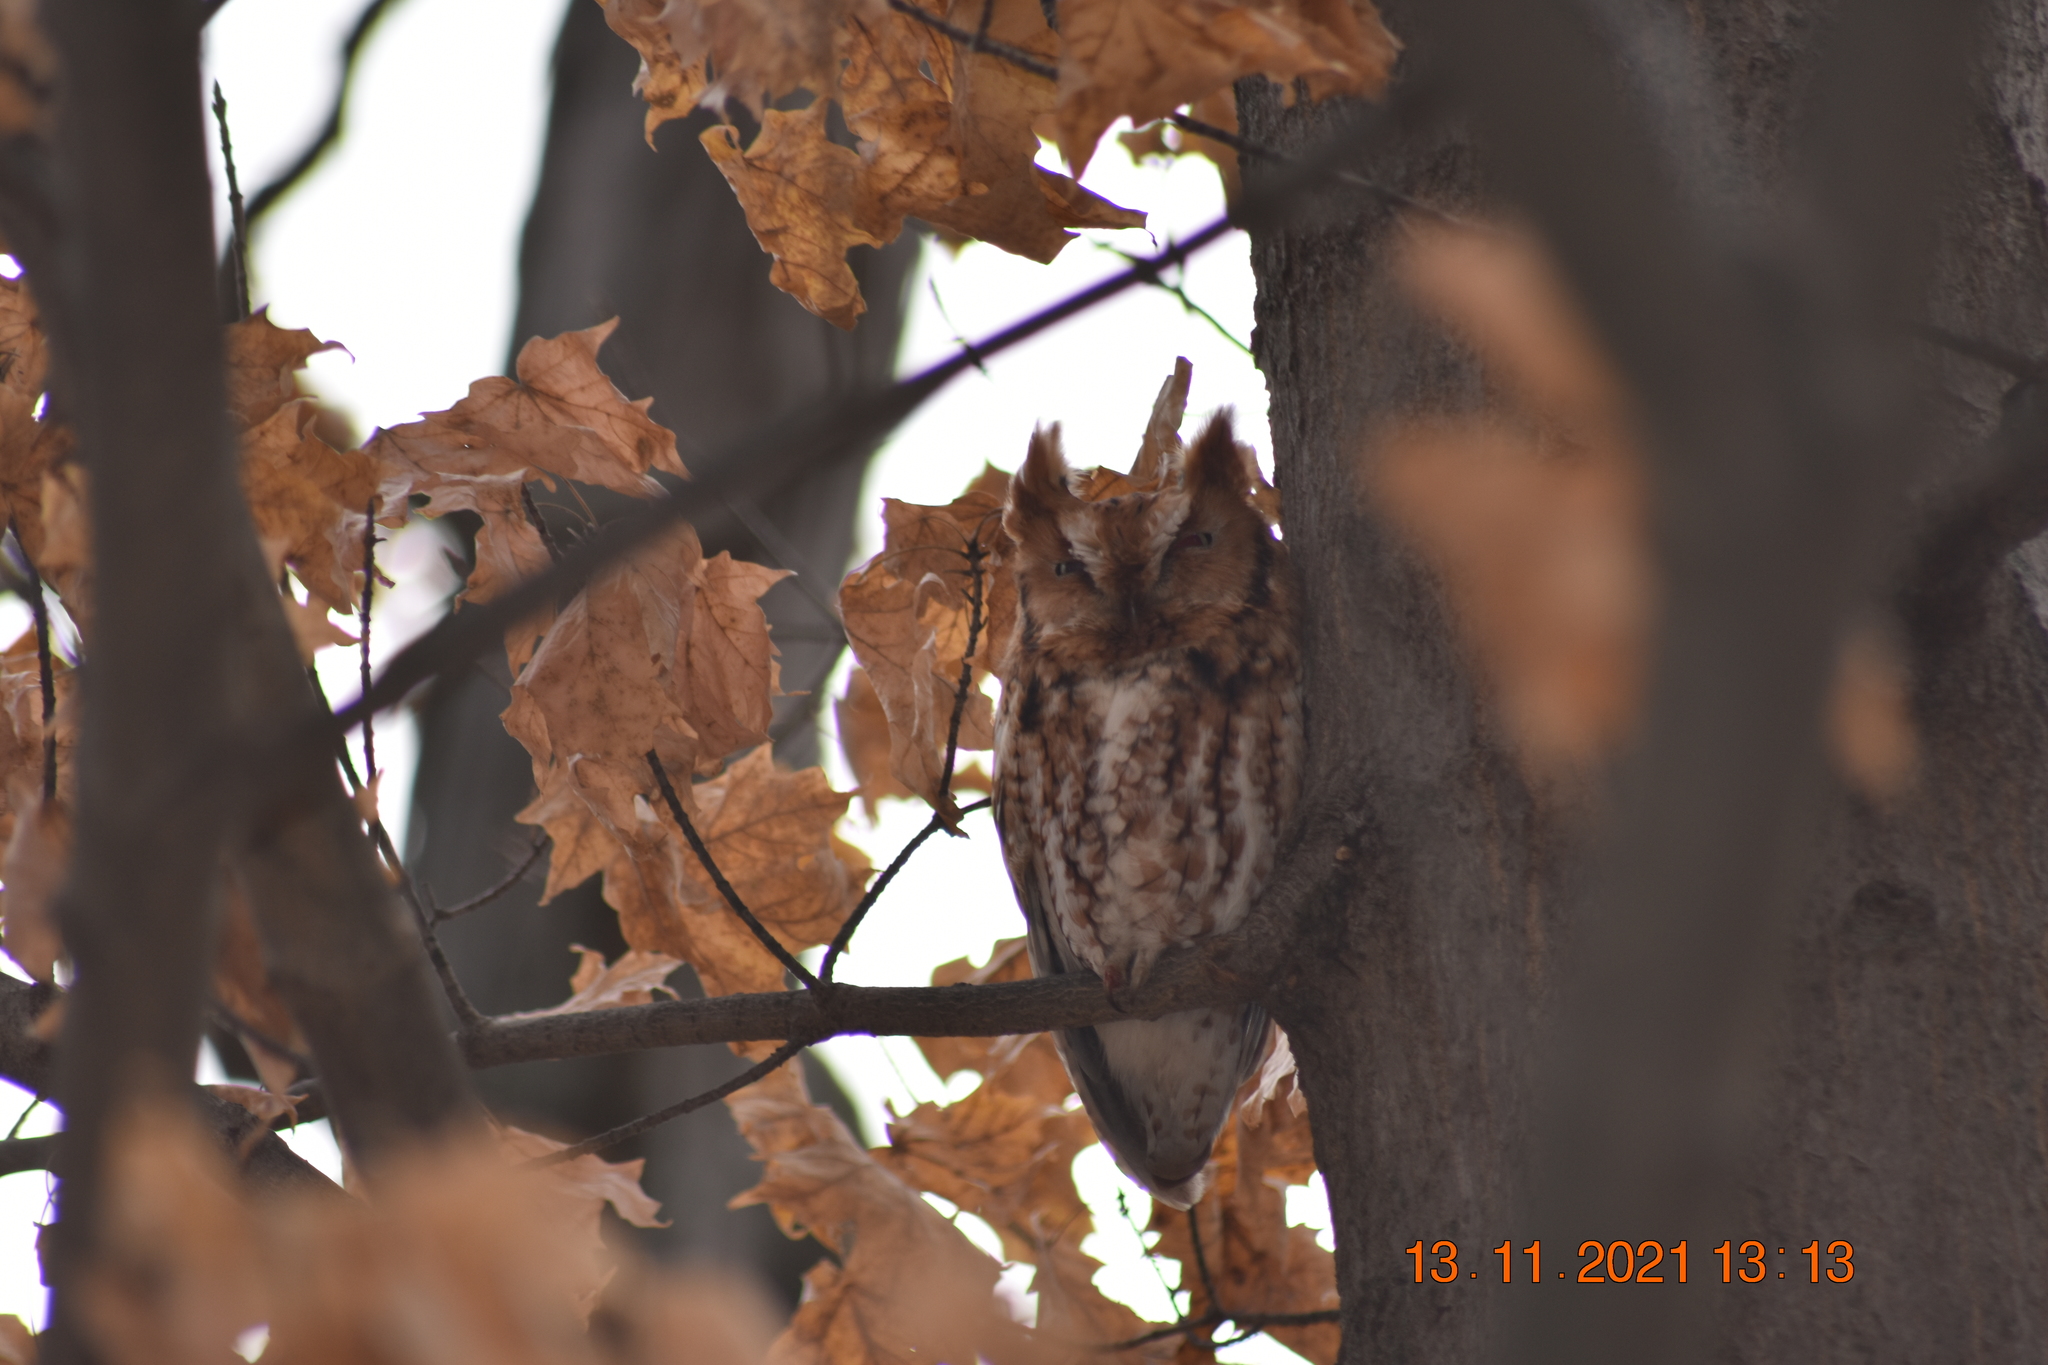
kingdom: Animalia
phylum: Chordata
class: Aves
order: Strigiformes
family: Strigidae
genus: Megascops
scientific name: Megascops asio
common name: Eastern screech-owl
